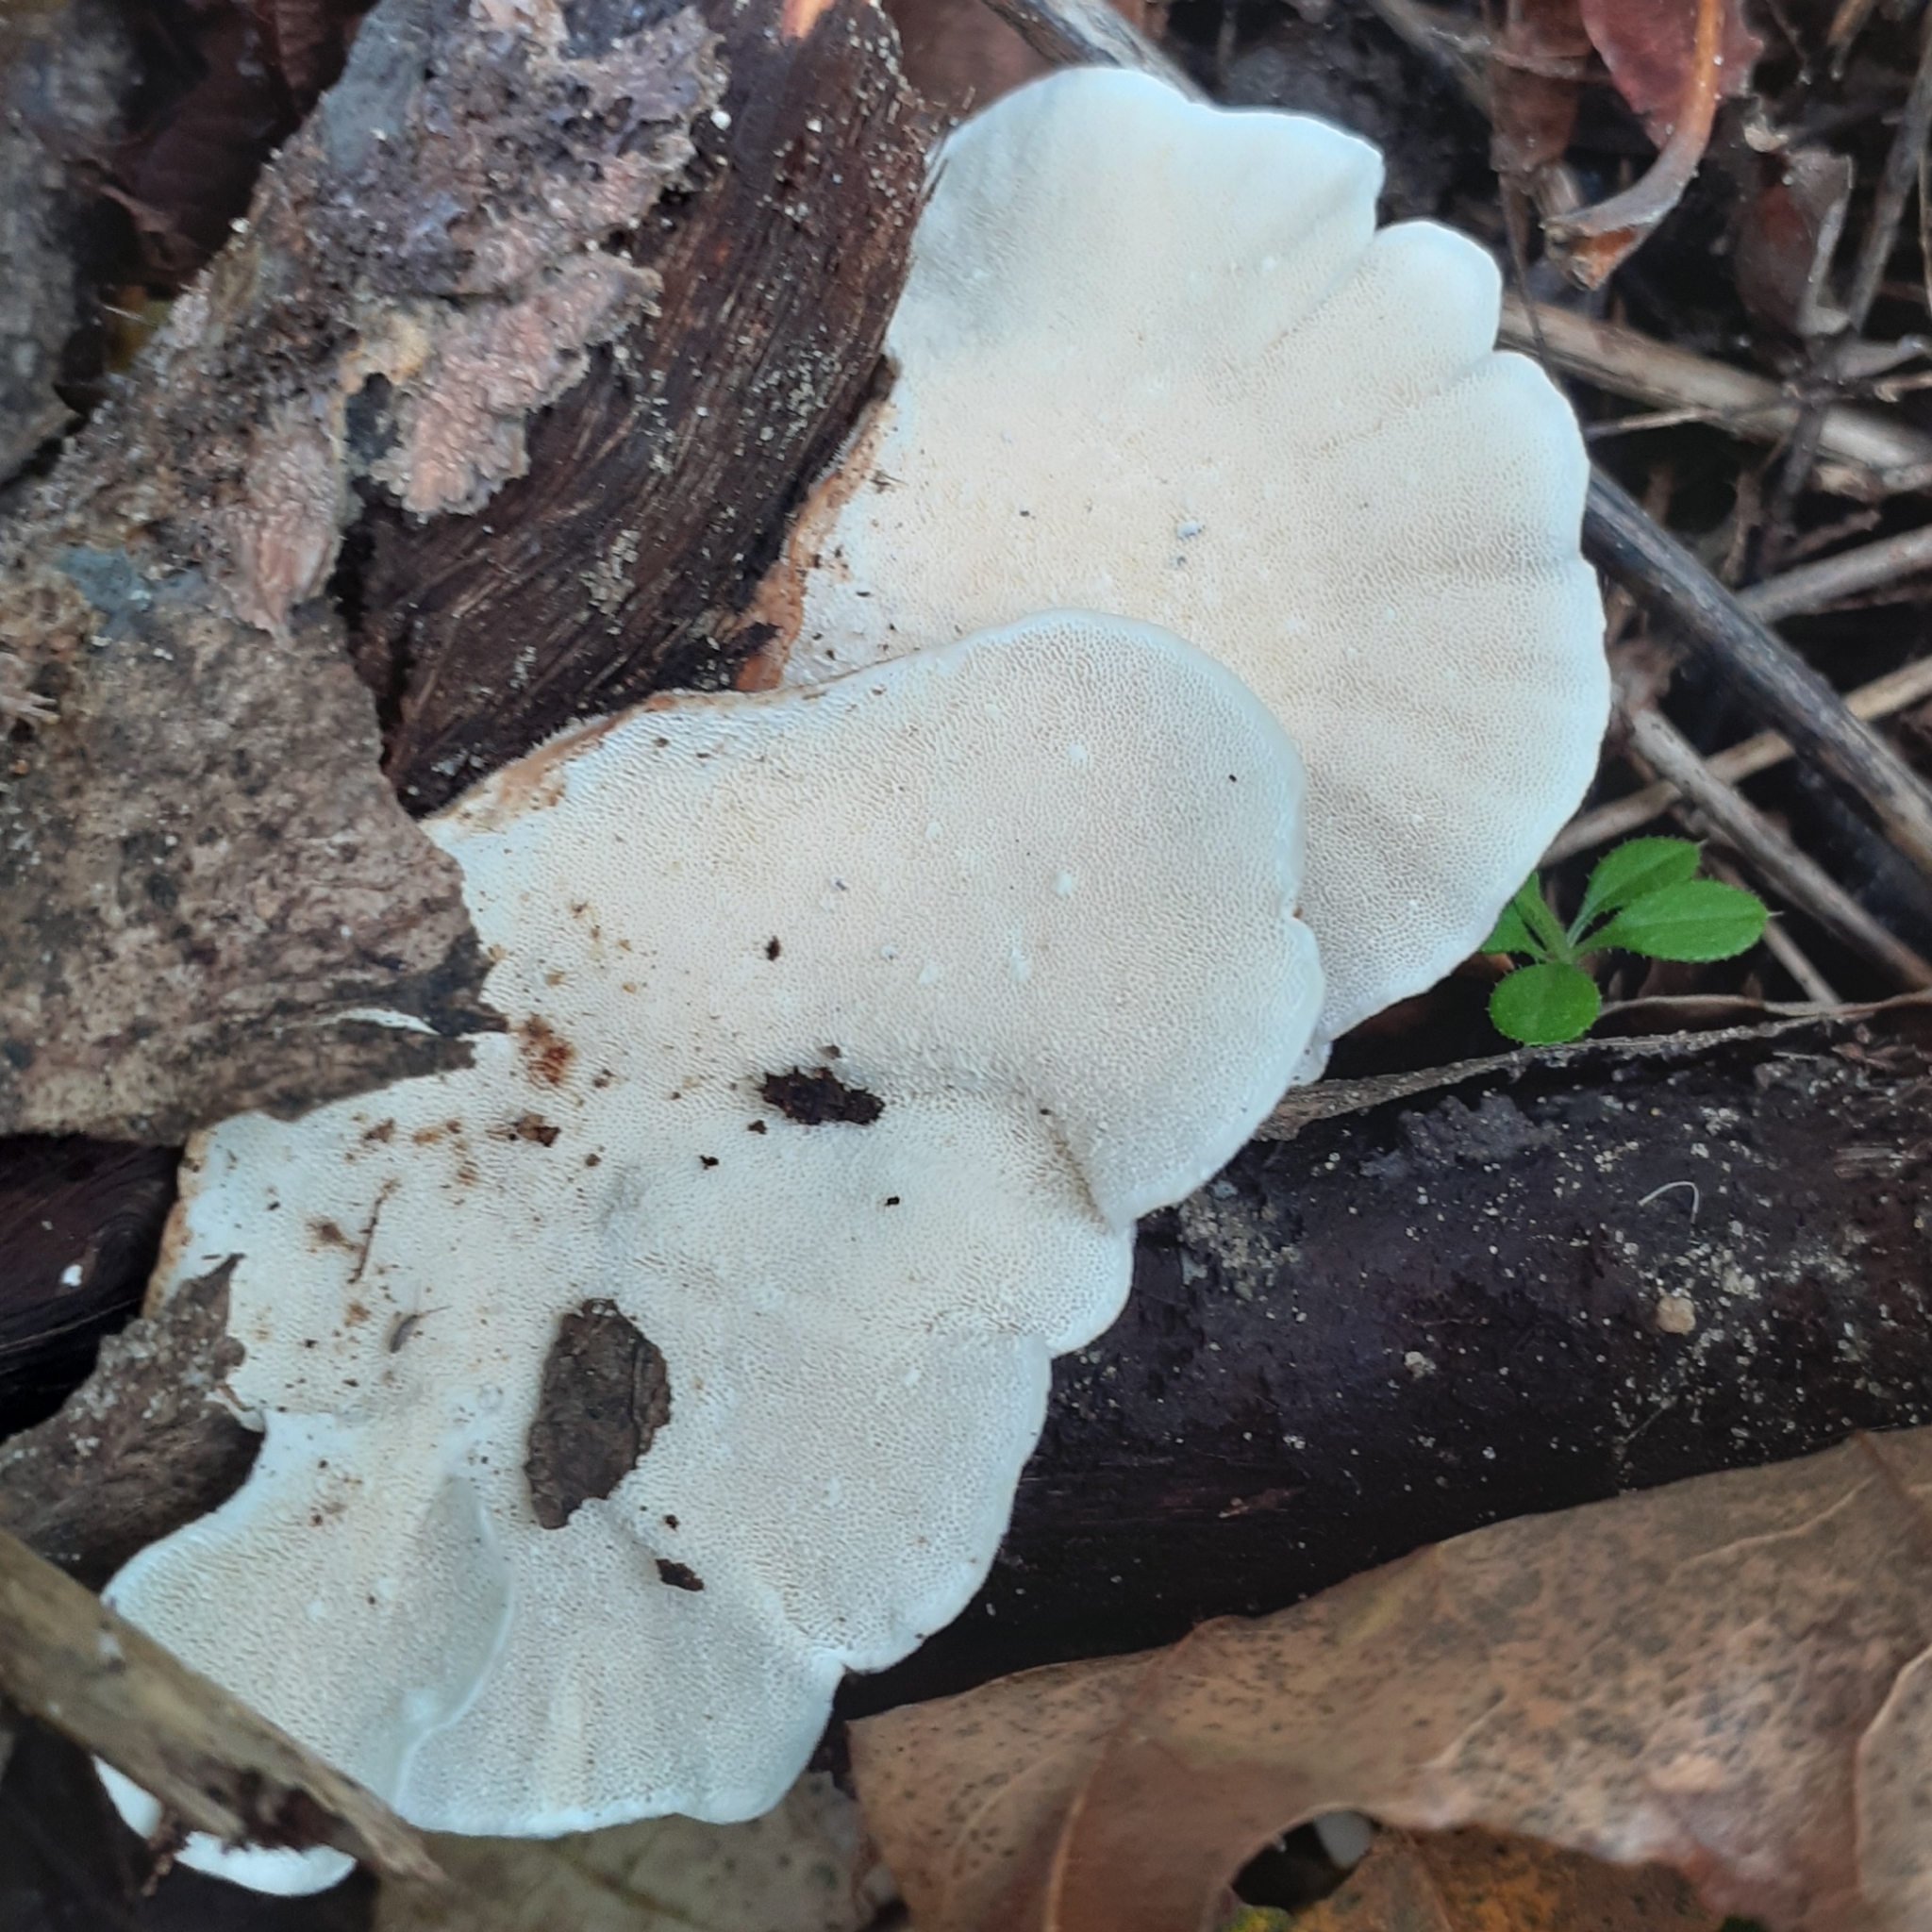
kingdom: Fungi
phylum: Basidiomycota
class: Agaricomycetes
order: Polyporales
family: Polyporaceae
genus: Trametes
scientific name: Trametes versicolor
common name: Turkeytail
